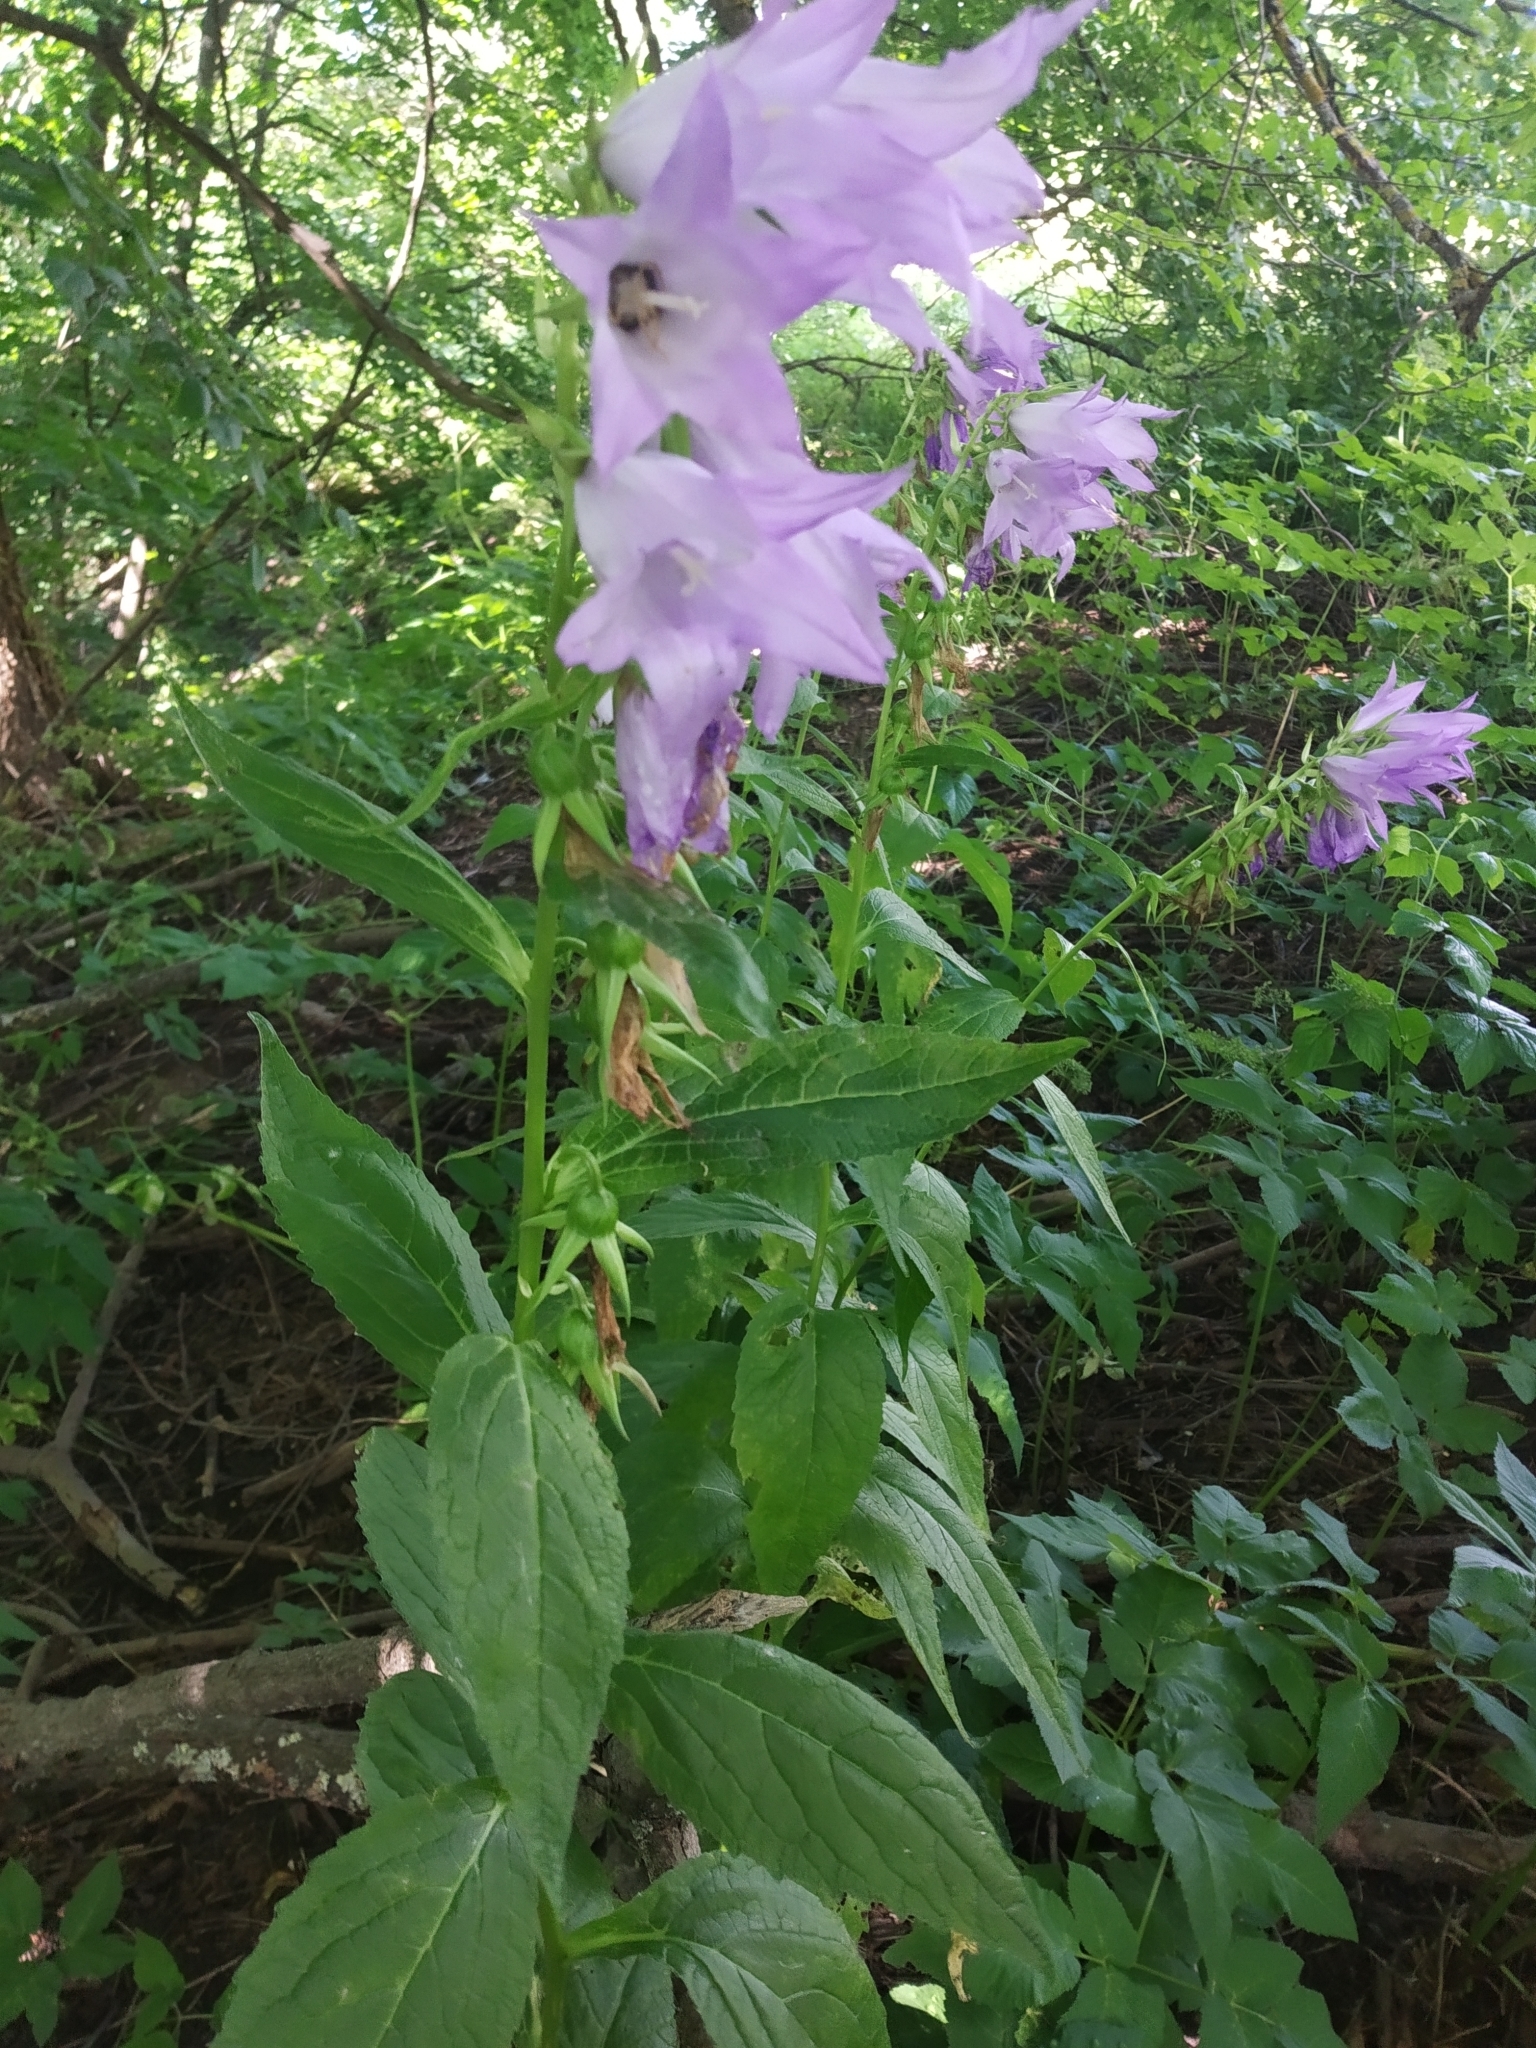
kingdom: Plantae
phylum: Tracheophyta
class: Magnoliopsida
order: Asterales
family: Campanulaceae
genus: Campanula
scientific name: Campanula latifolia
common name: Giant bellflower
